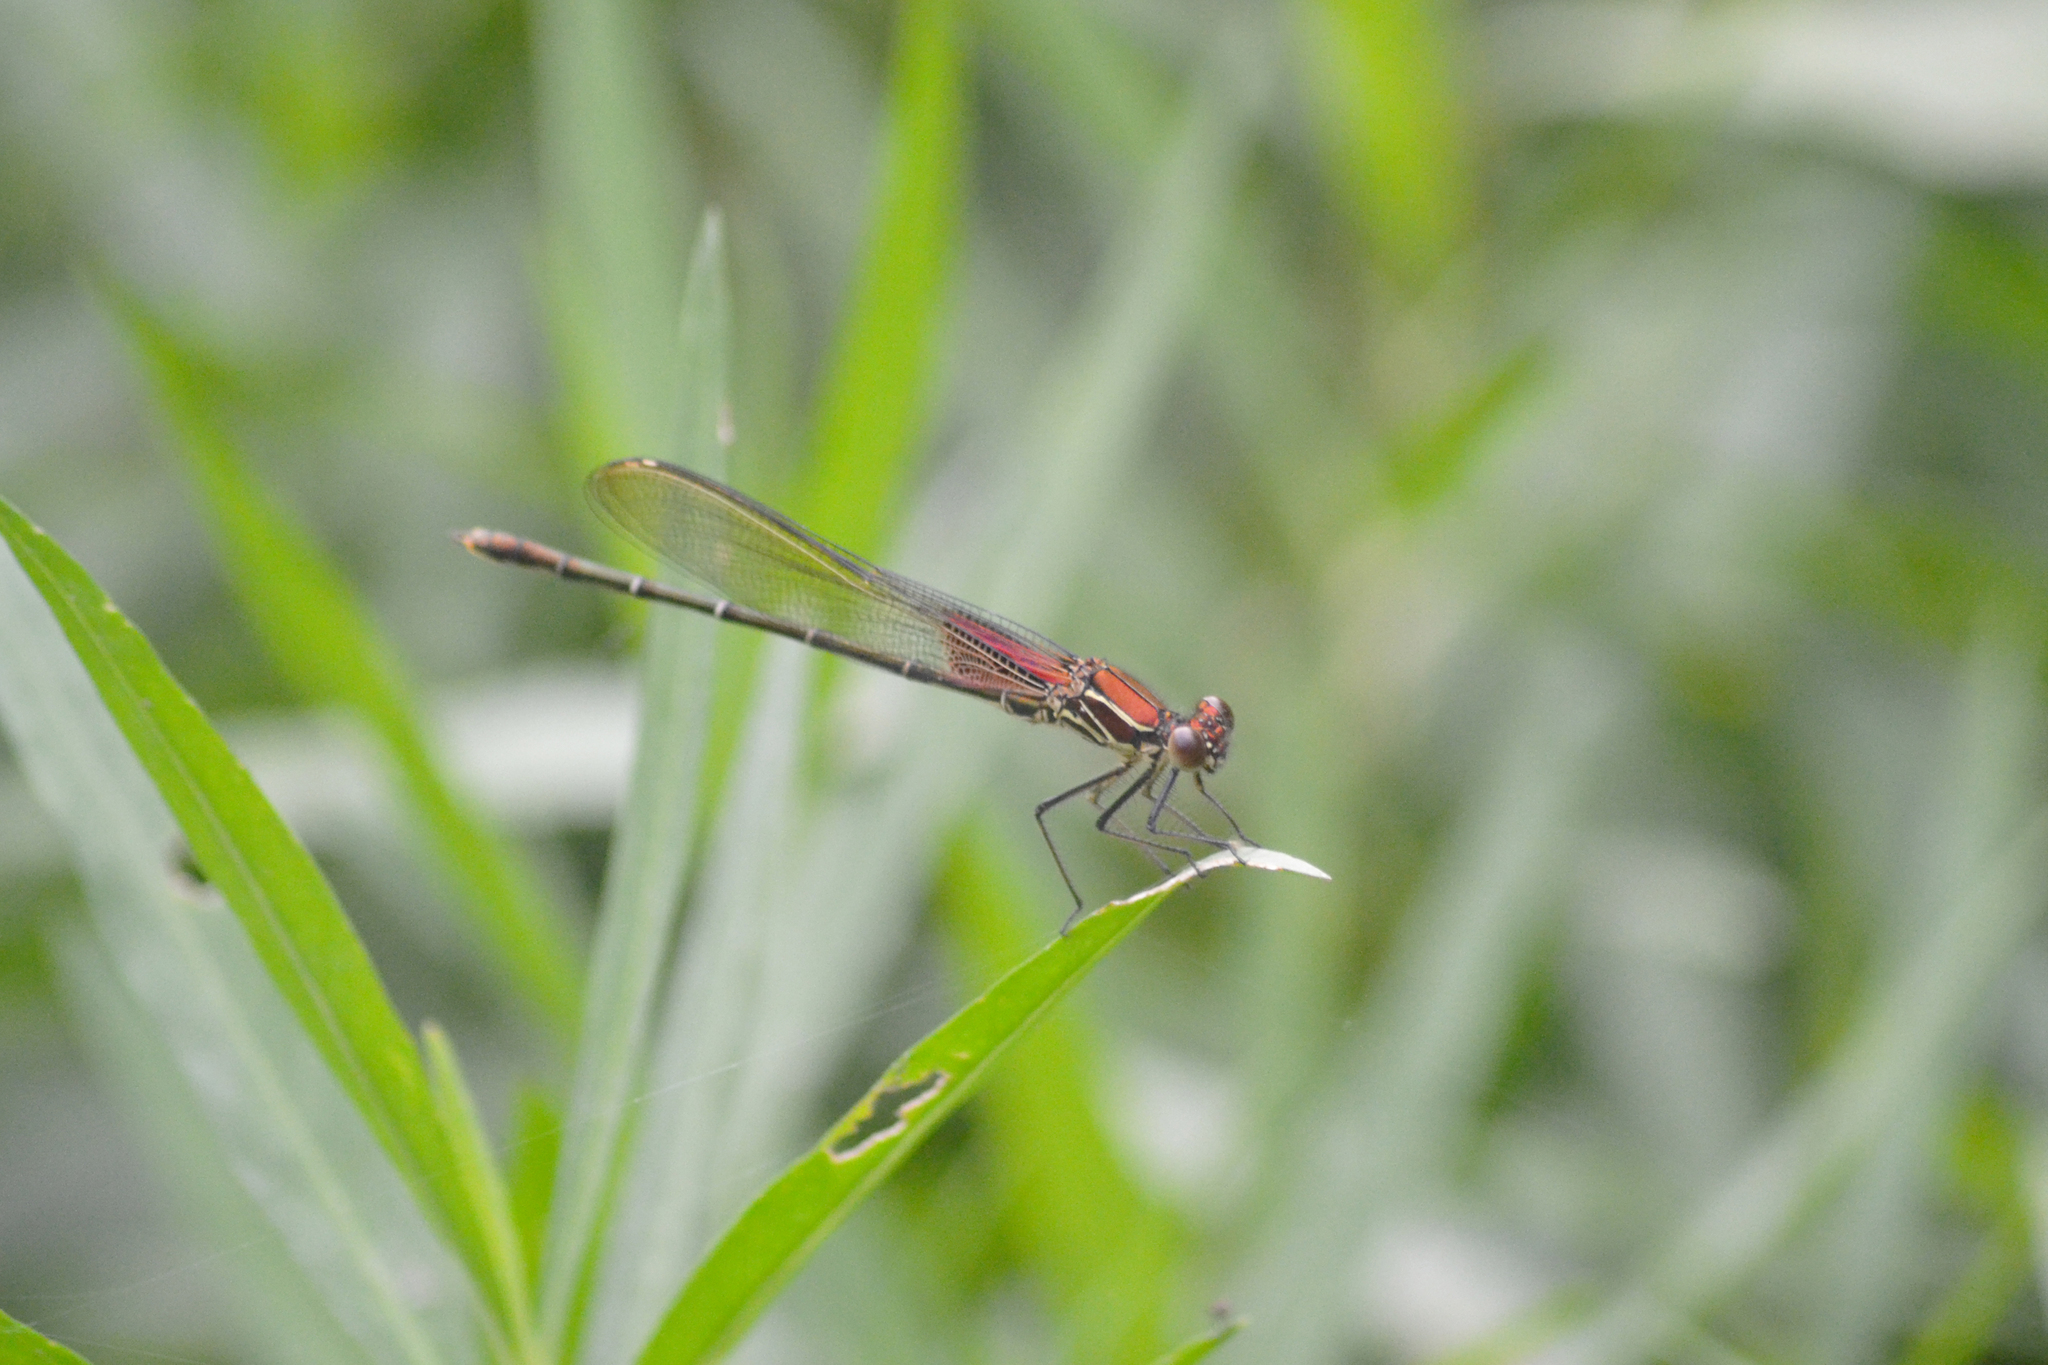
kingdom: Animalia
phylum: Arthropoda
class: Insecta
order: Odonata
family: Calopterygidae
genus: Hetaerina
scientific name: Hetaerina americana
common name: American rubyspot
